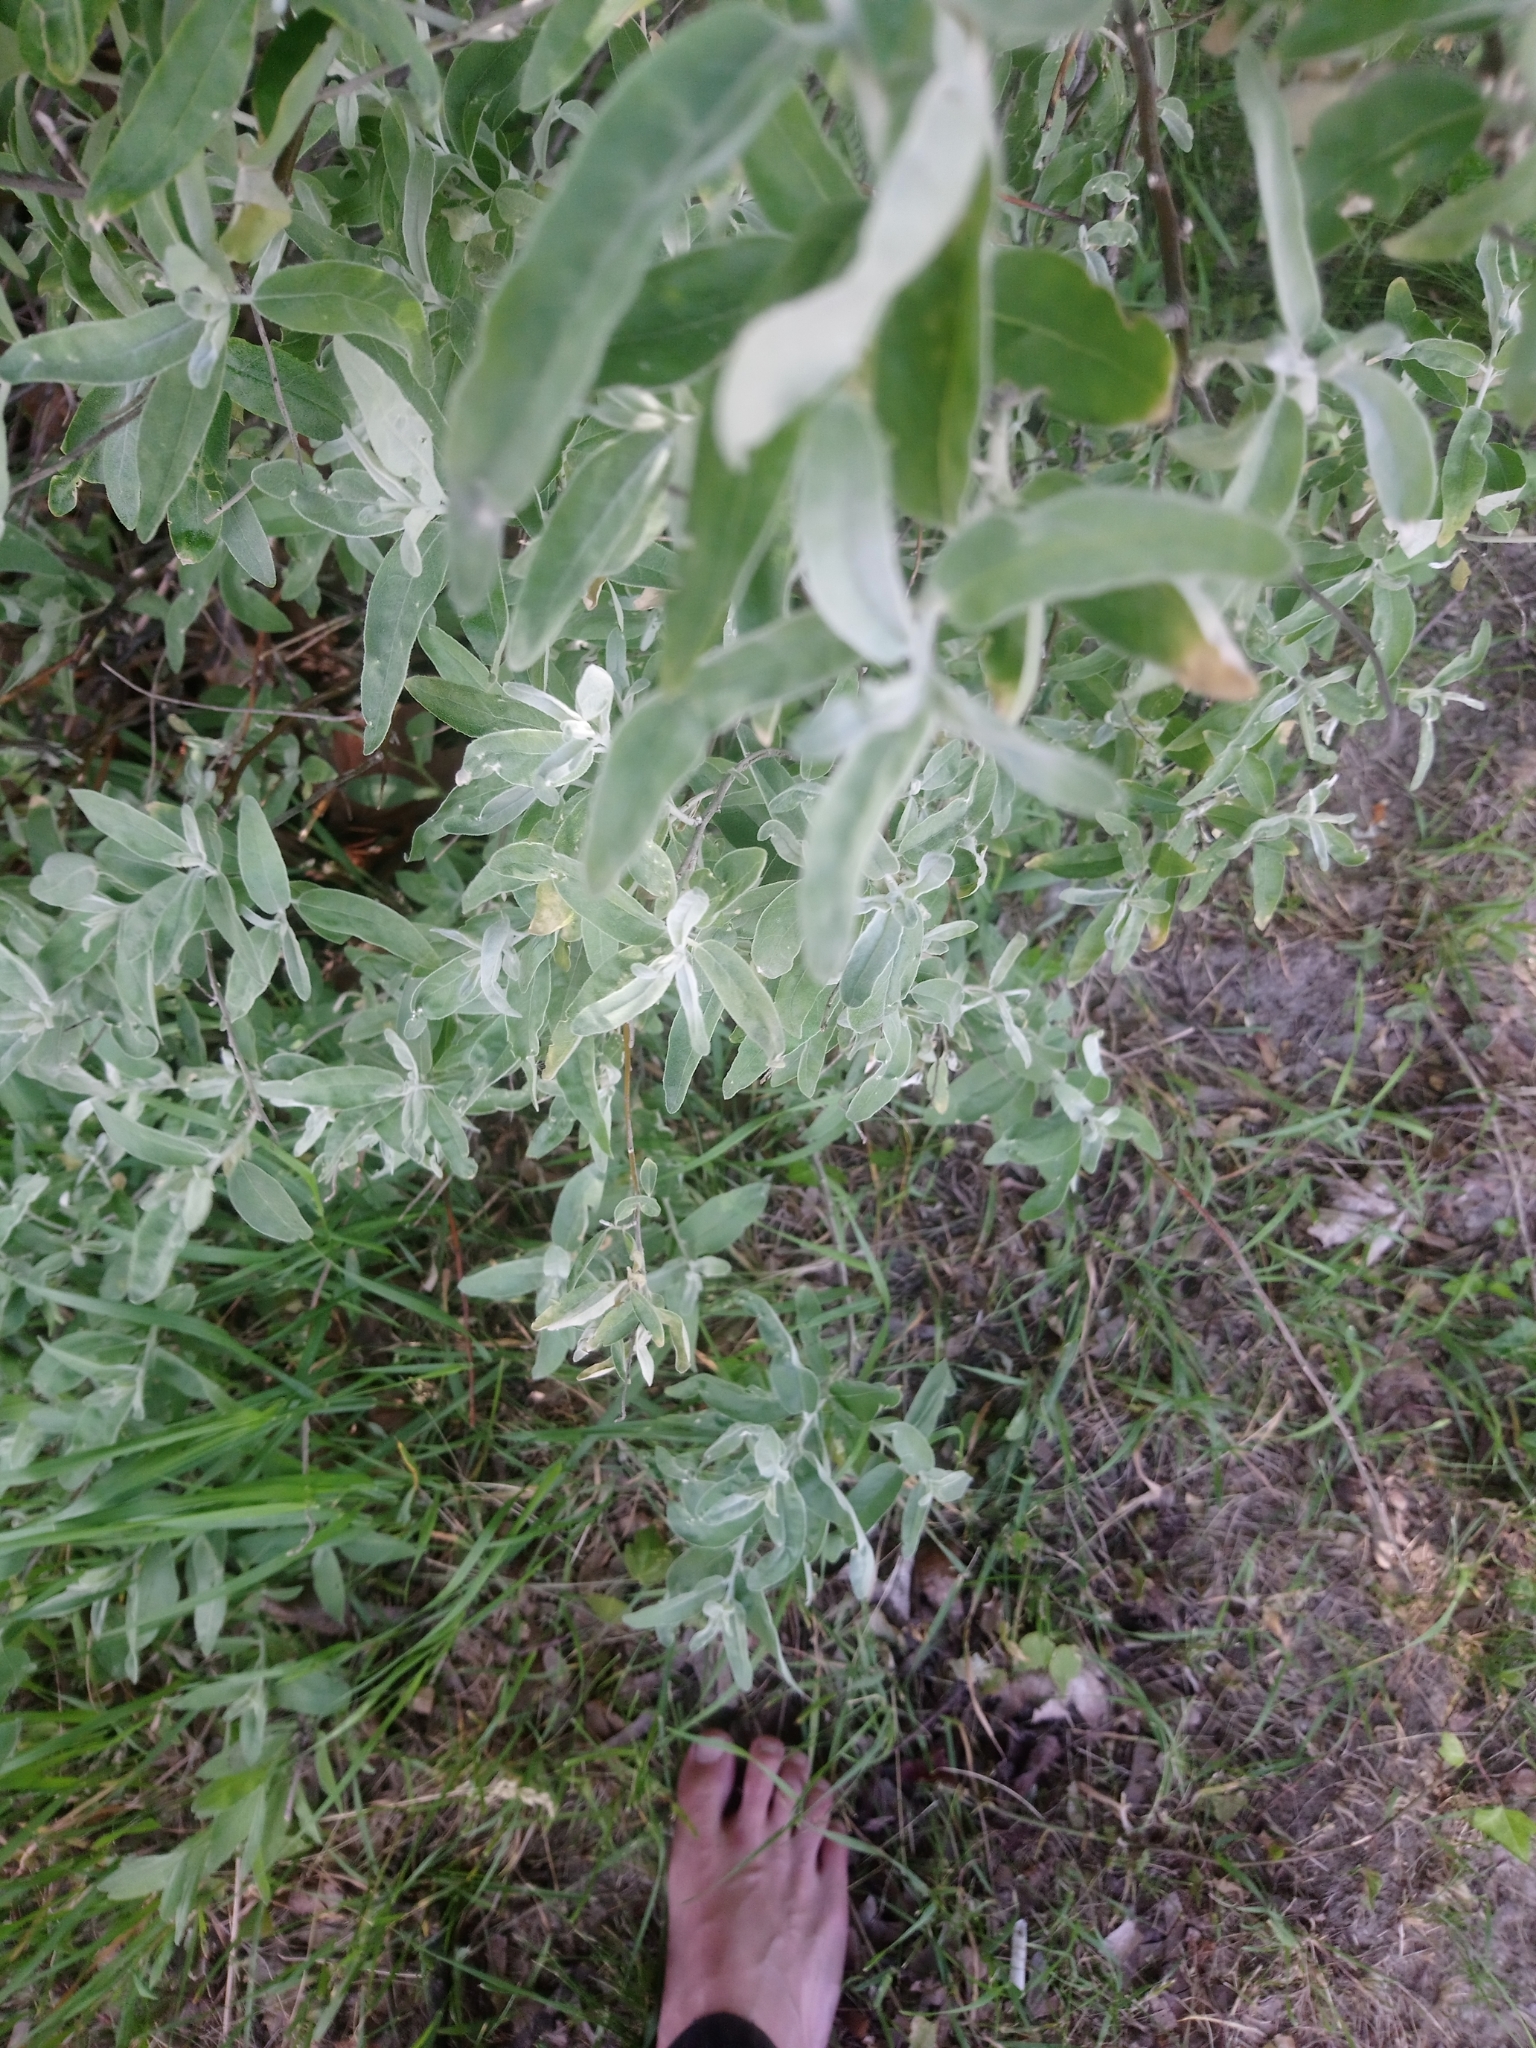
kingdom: Plantae
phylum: Tracheophyta
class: Magnoliopsida
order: Rosales
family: Elaeagnaceae
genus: Elaeagnus
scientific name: Elaeagnus angustifolia
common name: Russian olive
